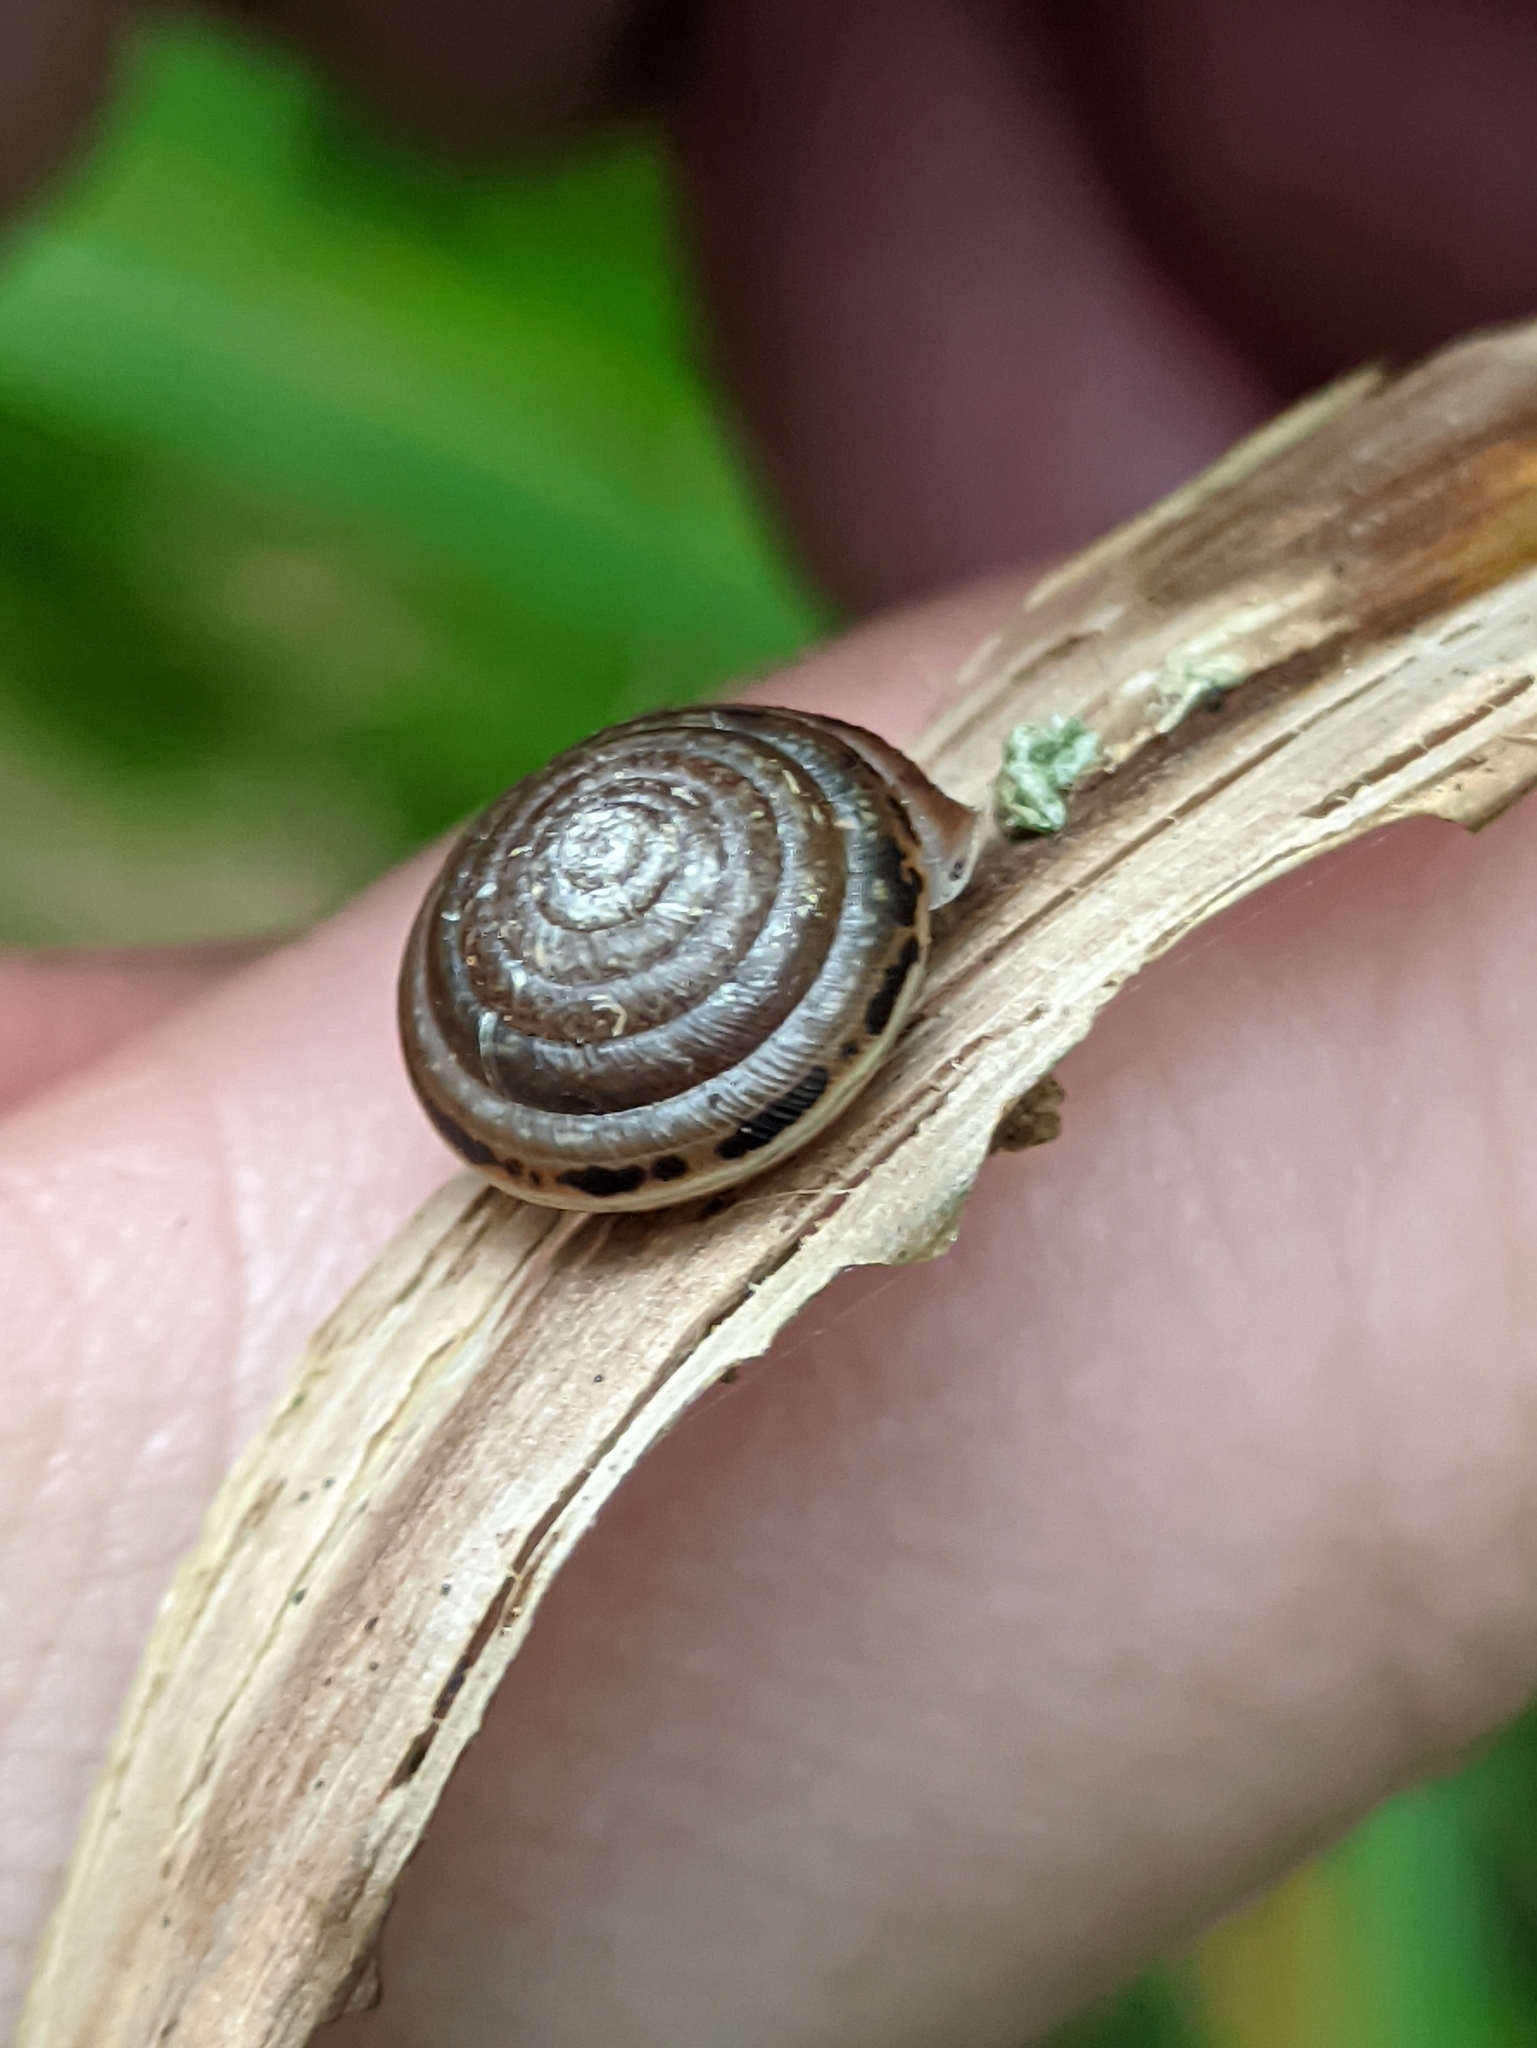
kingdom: Animalia
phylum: Mollusca
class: Gastropoda
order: Stylommatophora
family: Hygromiidae
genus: Perforatella
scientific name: Perforatella bidentata
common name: Double-tooth hairy snail
